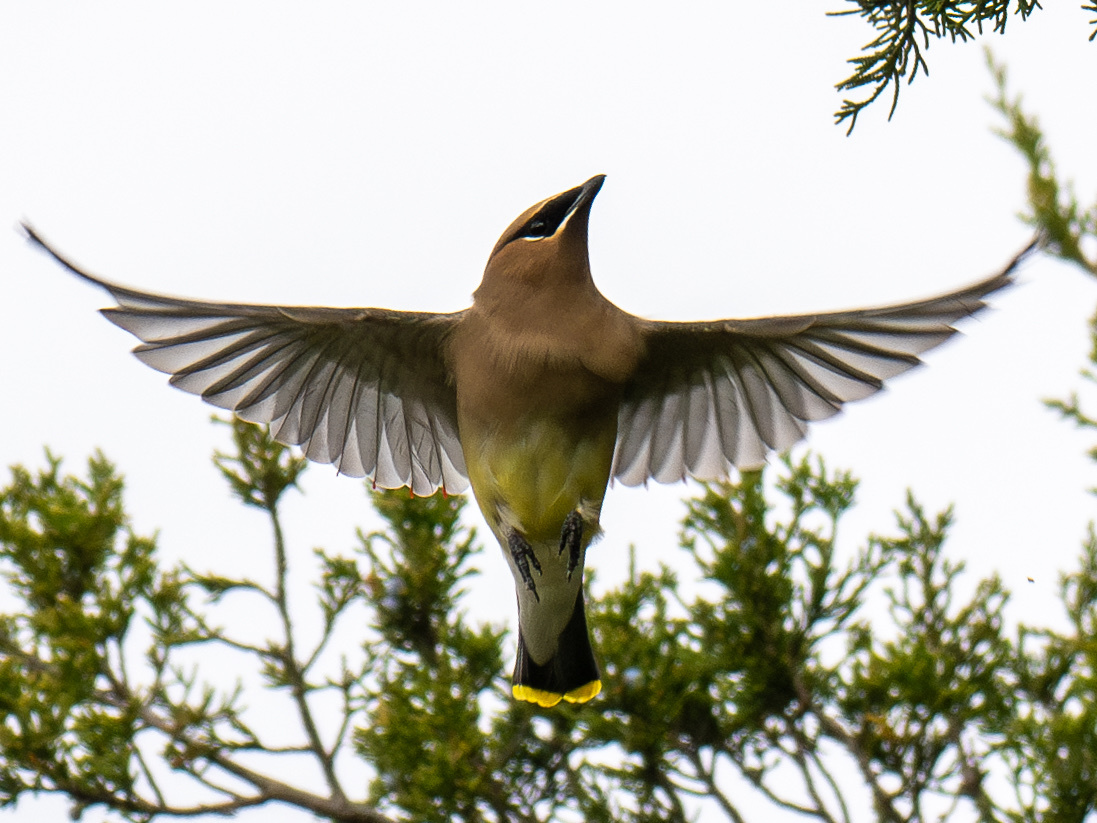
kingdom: Animalia
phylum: Chordata
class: Aves
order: Passeriformes
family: Bombycillidae
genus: Bombycilla
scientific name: Bombycilla cedrorum
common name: Cedar waxwing
